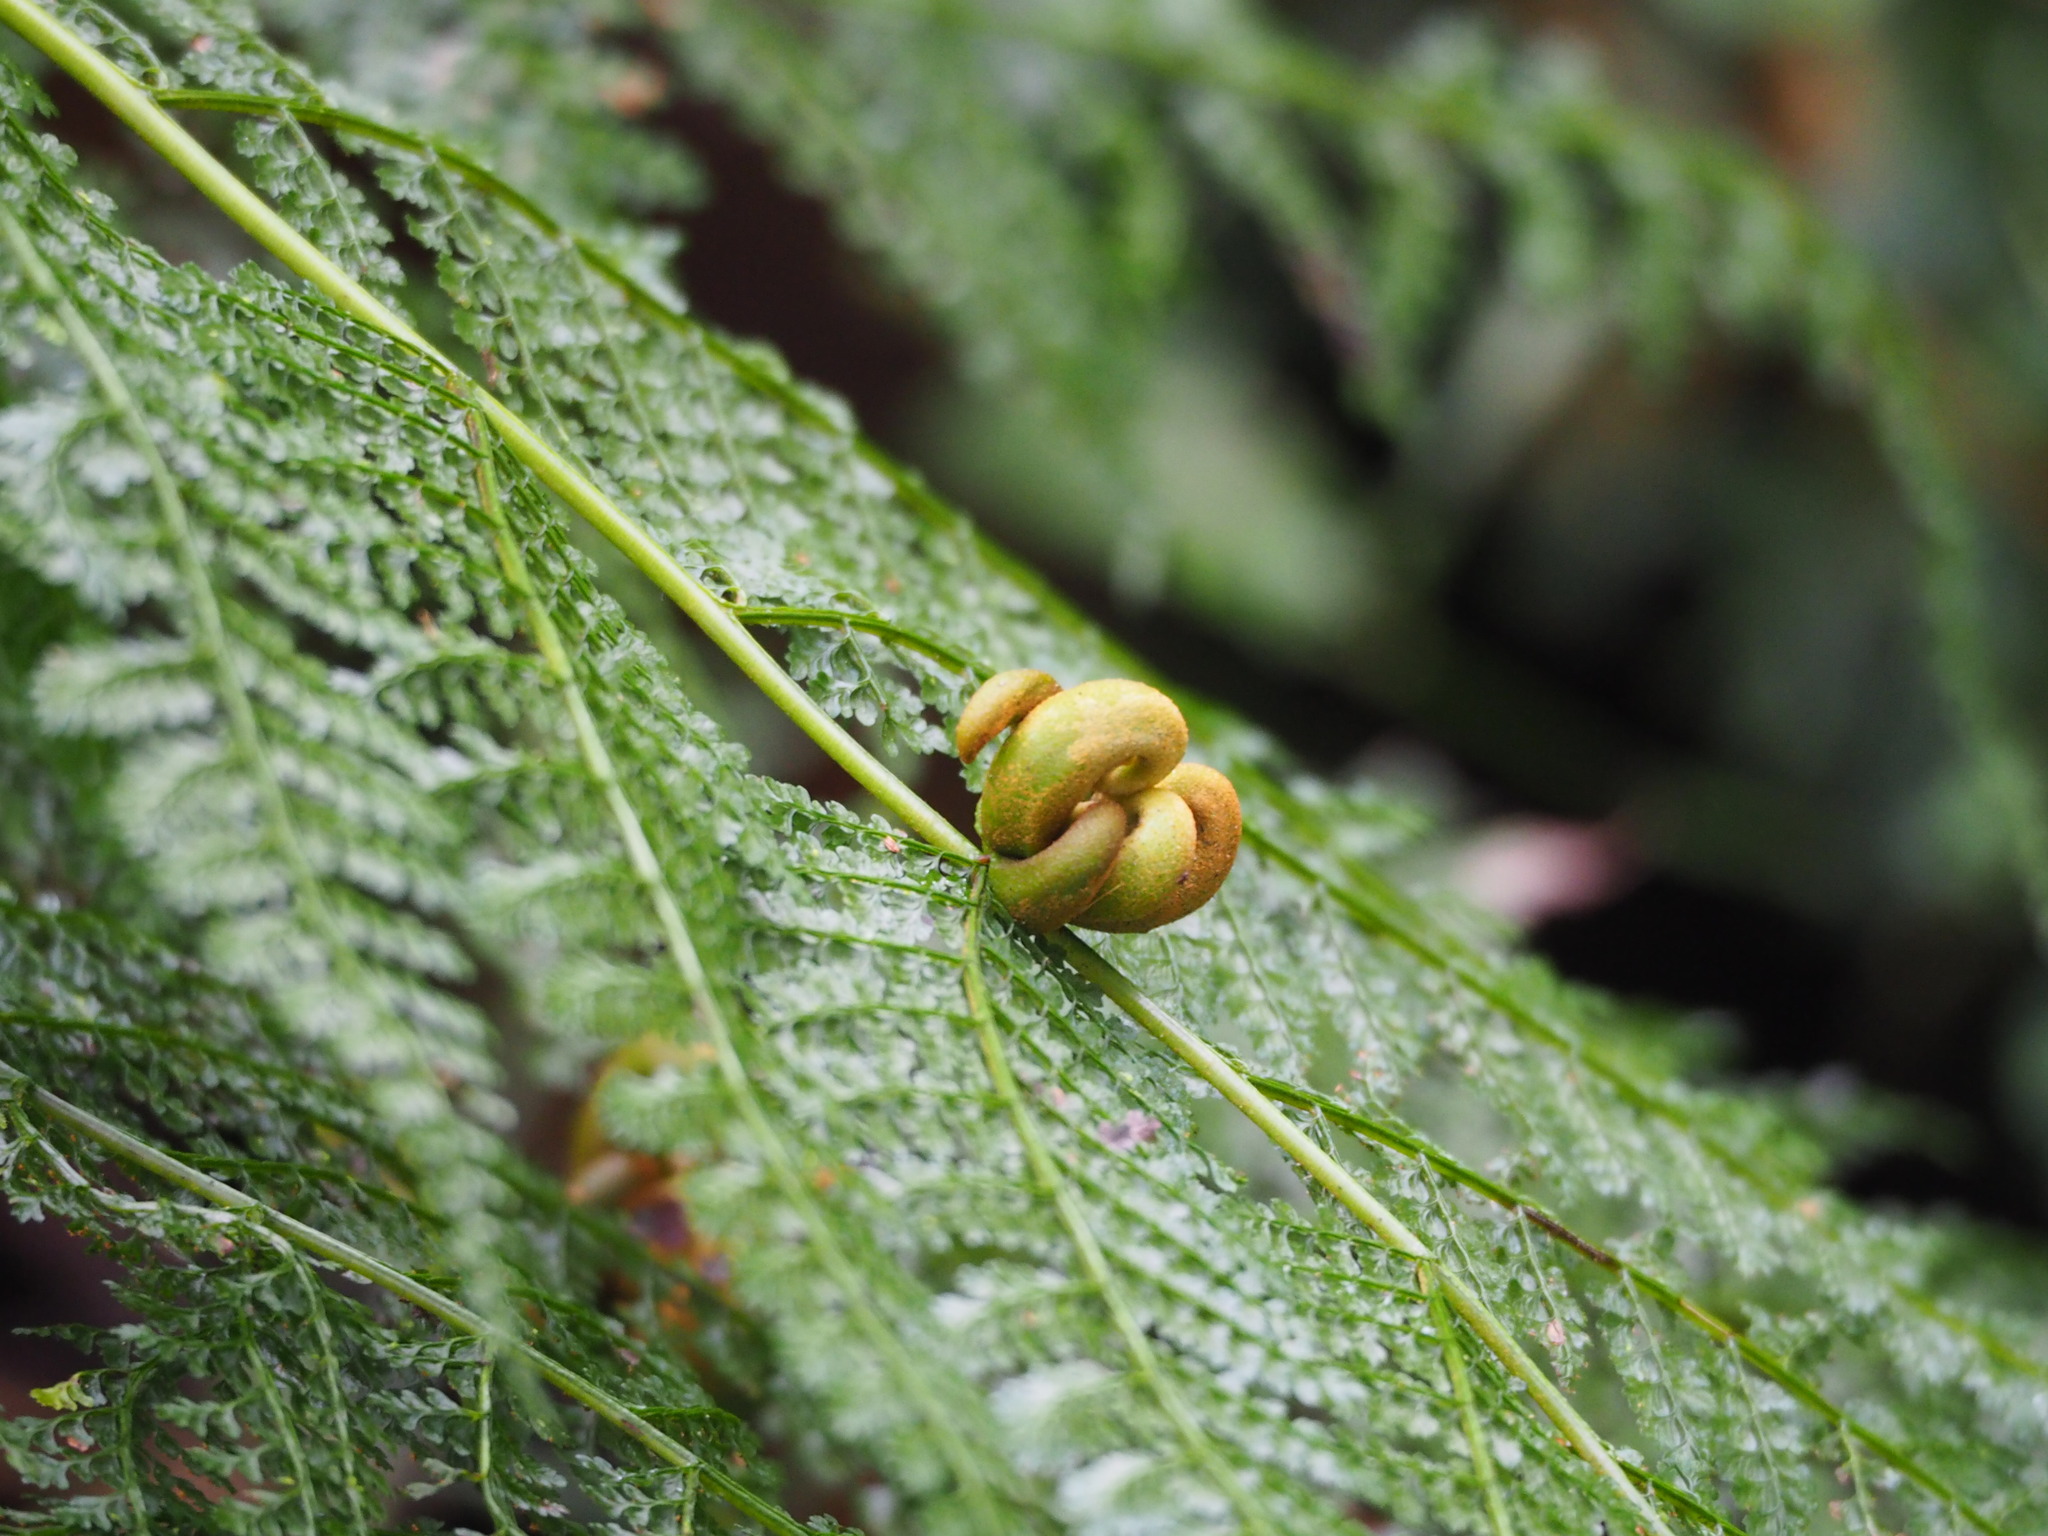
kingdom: Plantae
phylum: Tracheophyta
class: Polypodiopsida
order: Polypodiales
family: Dennstaedtiaceae
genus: Monachosorum
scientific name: Monachosorum henryi
